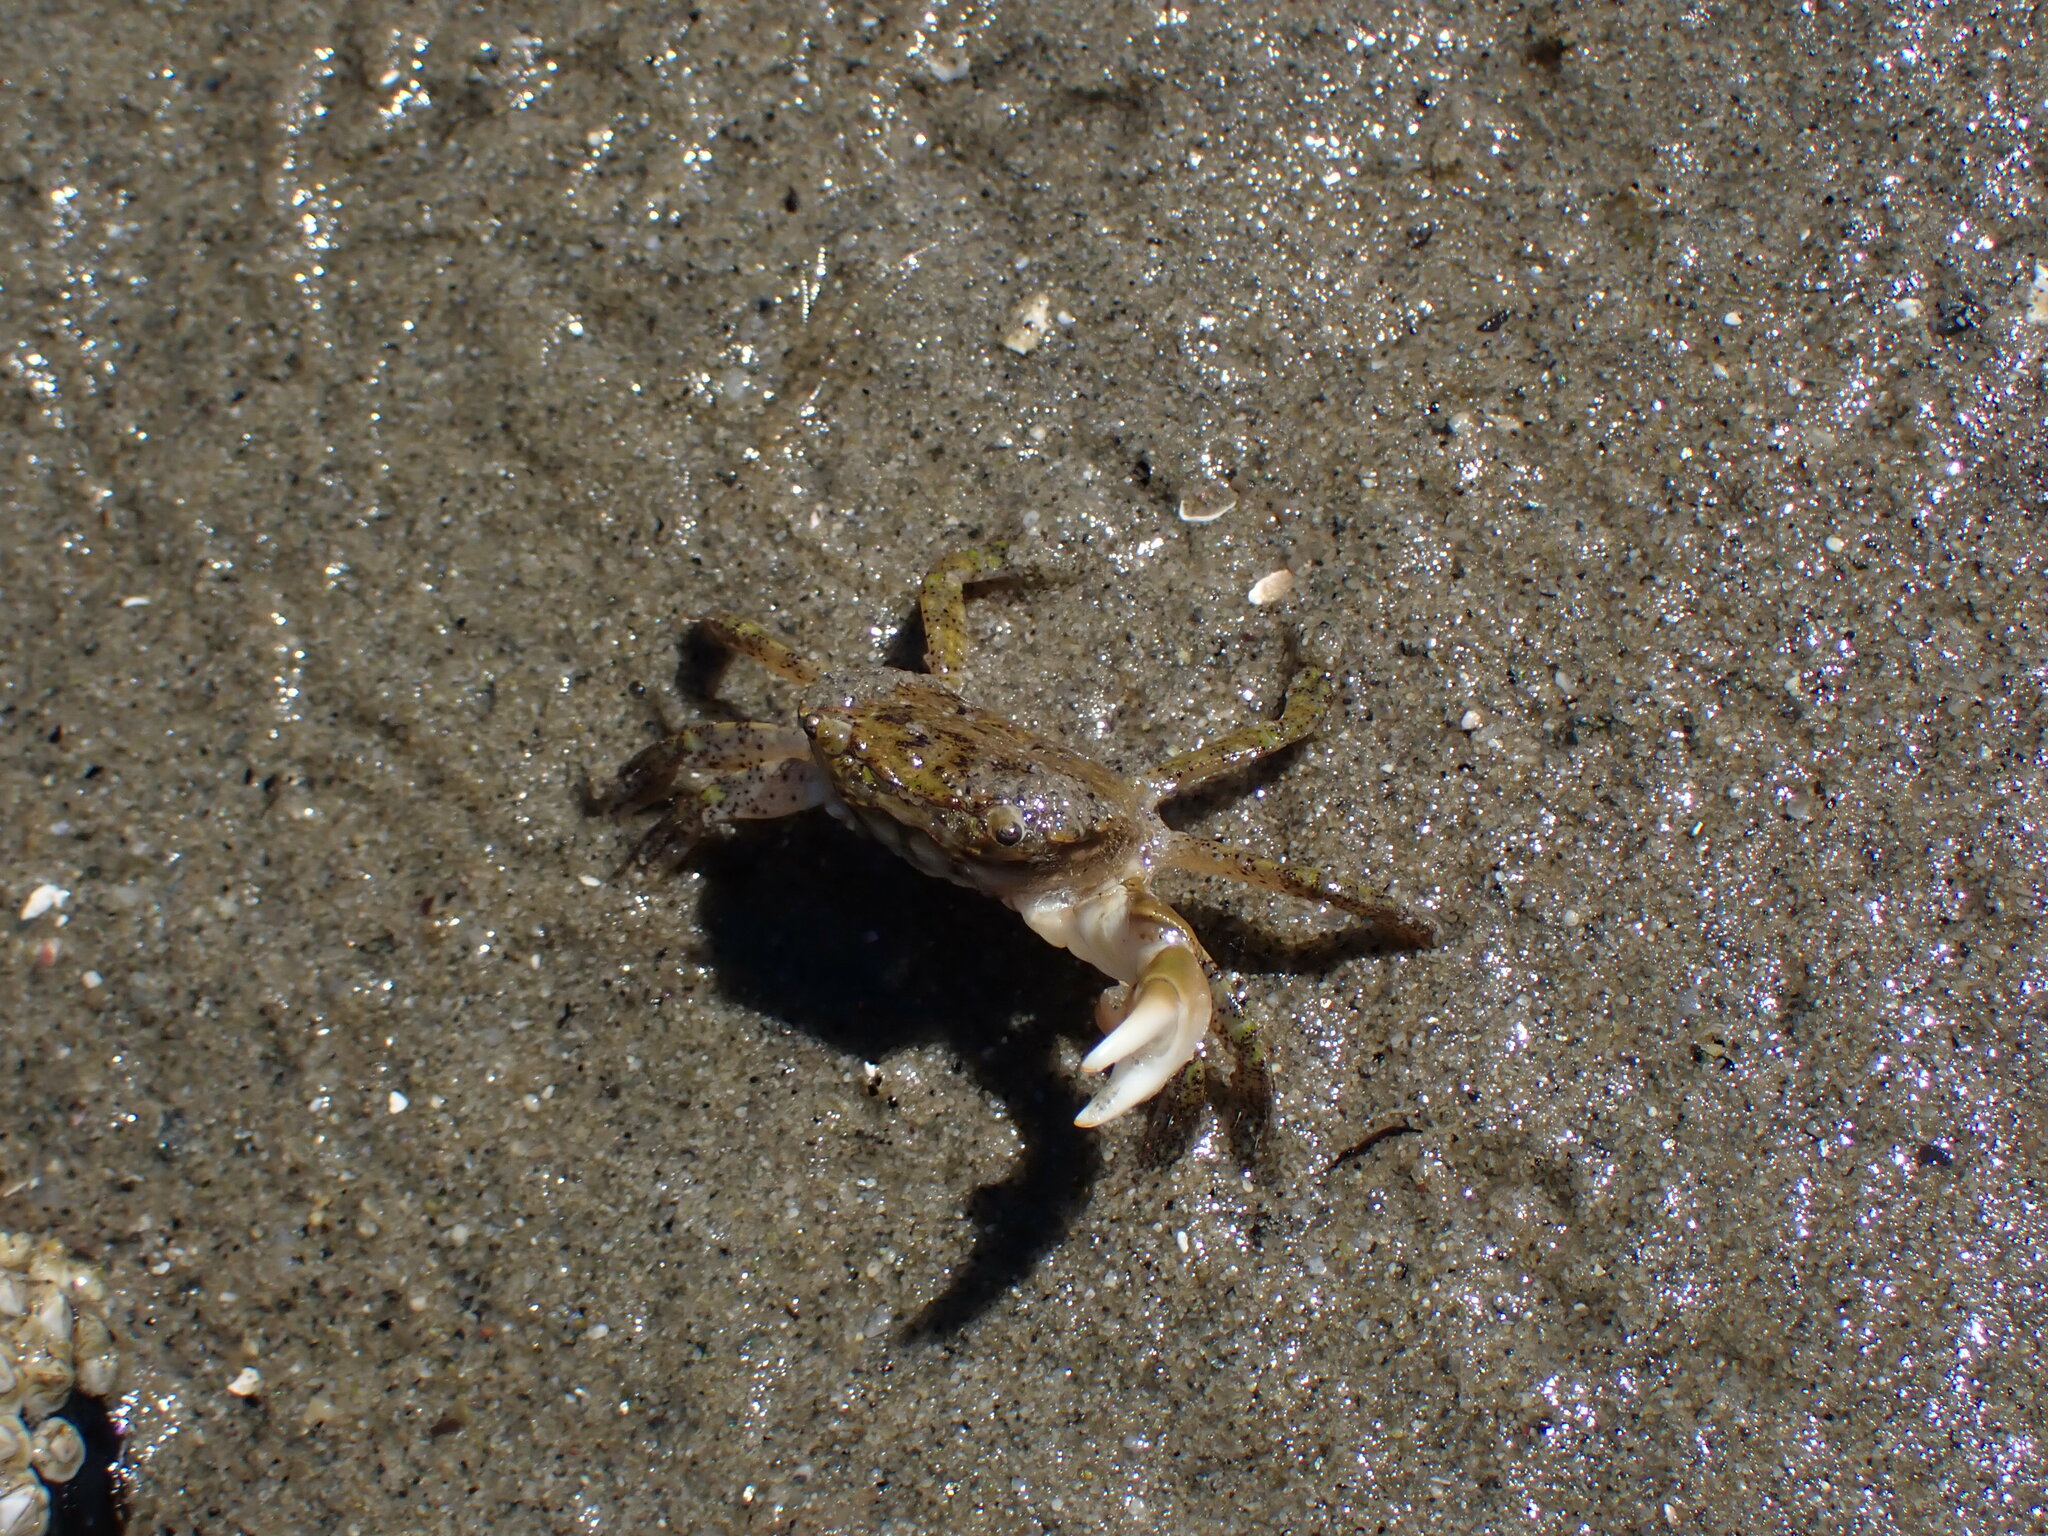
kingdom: Animalia
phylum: Arthropoda
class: Malacostraca
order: Decapoda
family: Varunidae
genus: Hemigrapsus
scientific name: Hemigrapsus oregonensis
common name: Yellow shore crab
